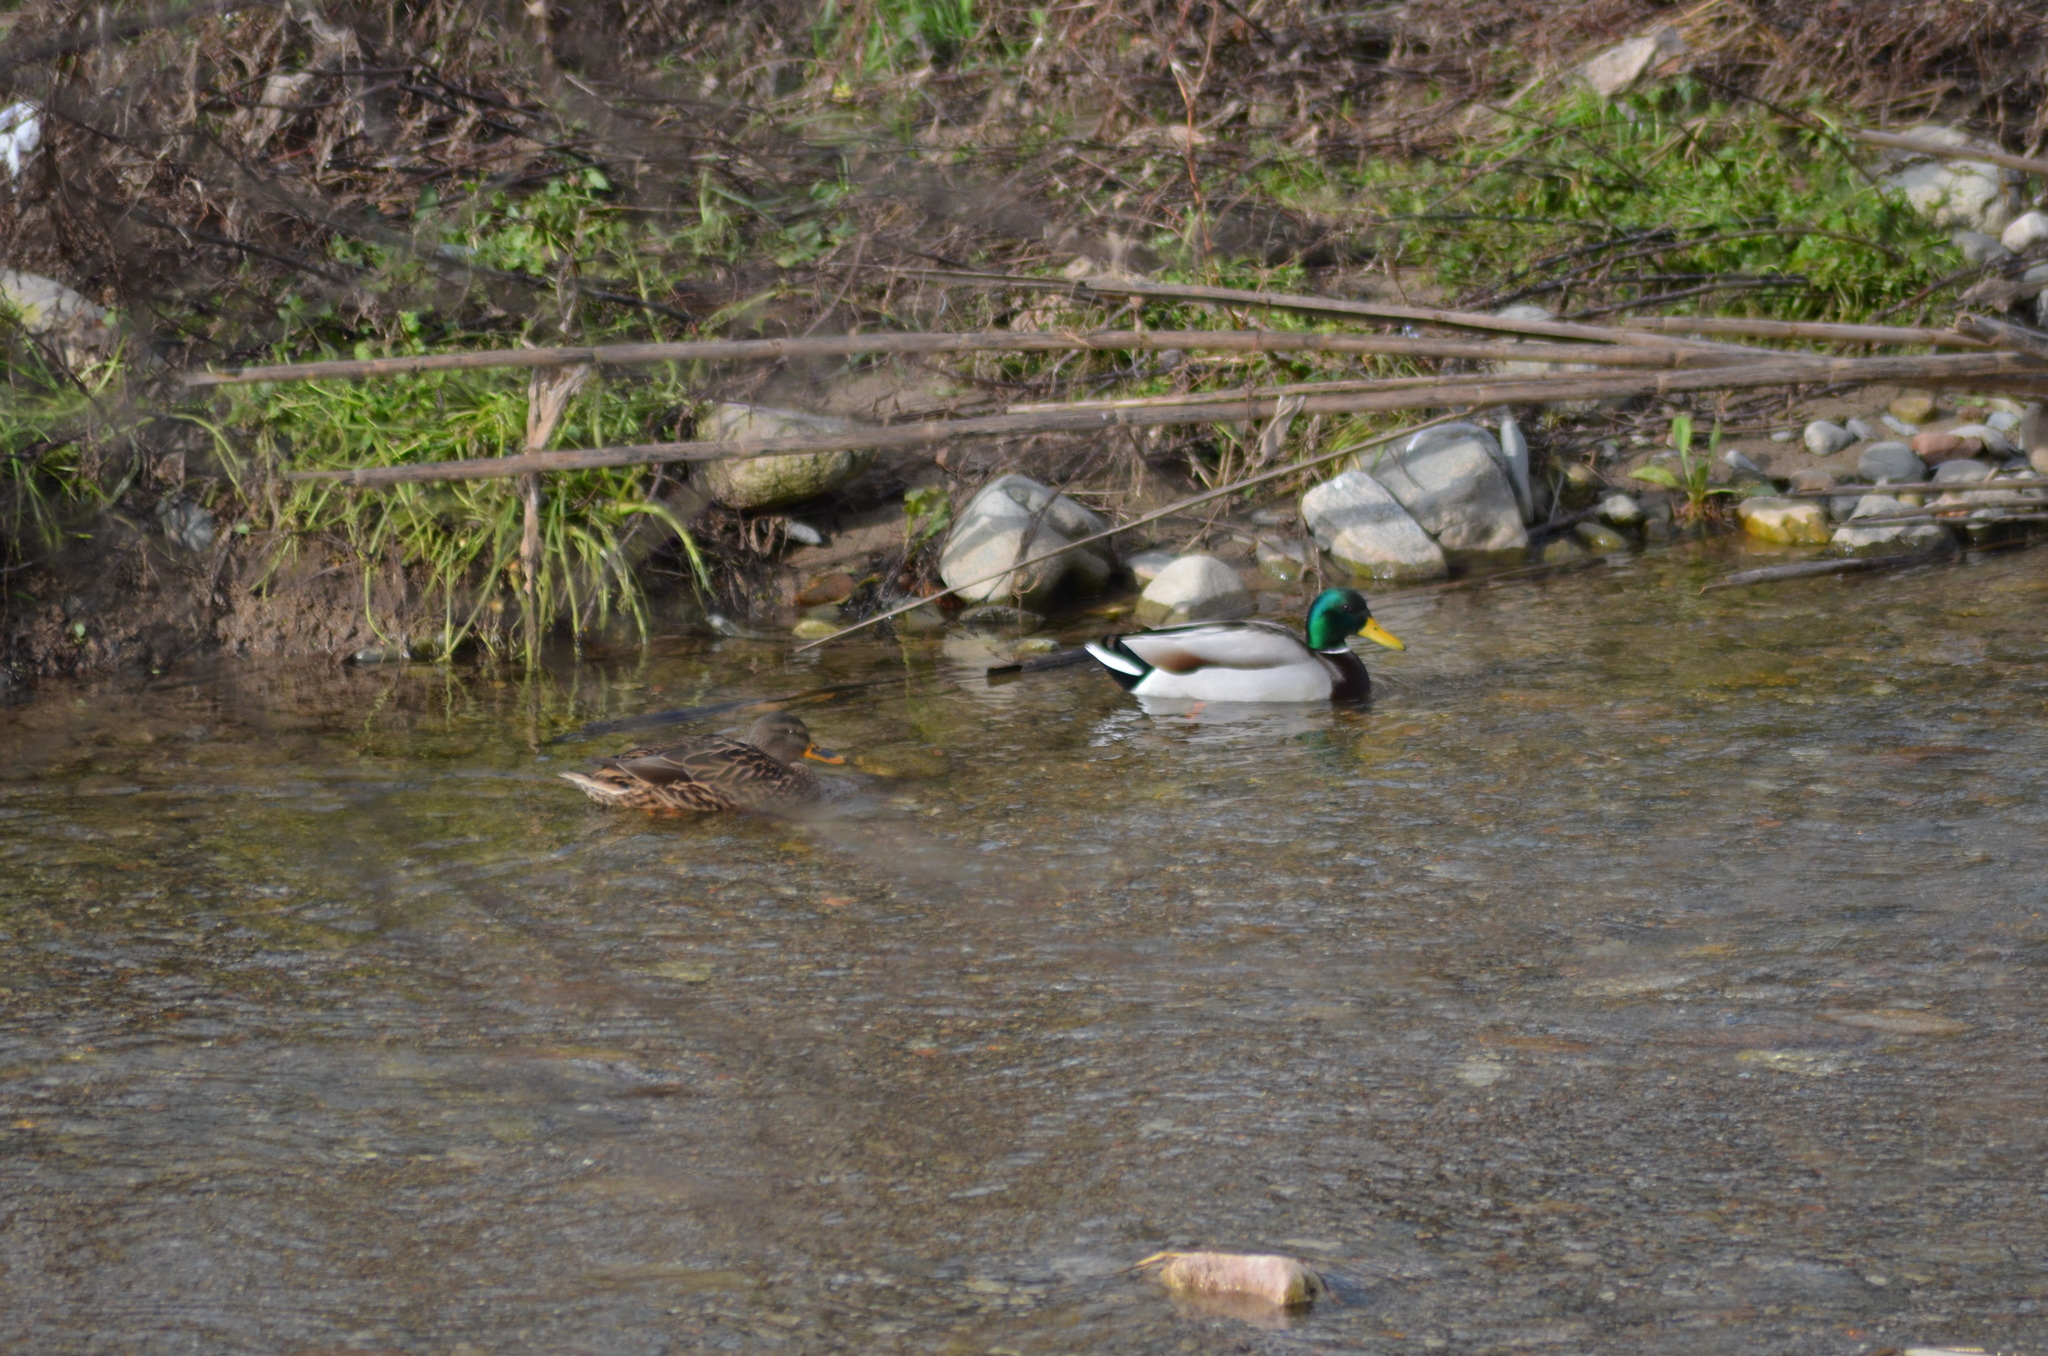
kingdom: Animalia
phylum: Chordata
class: Aves
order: Anseriformes
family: Anatidae
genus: Anas
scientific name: Anas platyrhynchos
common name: Mallard
